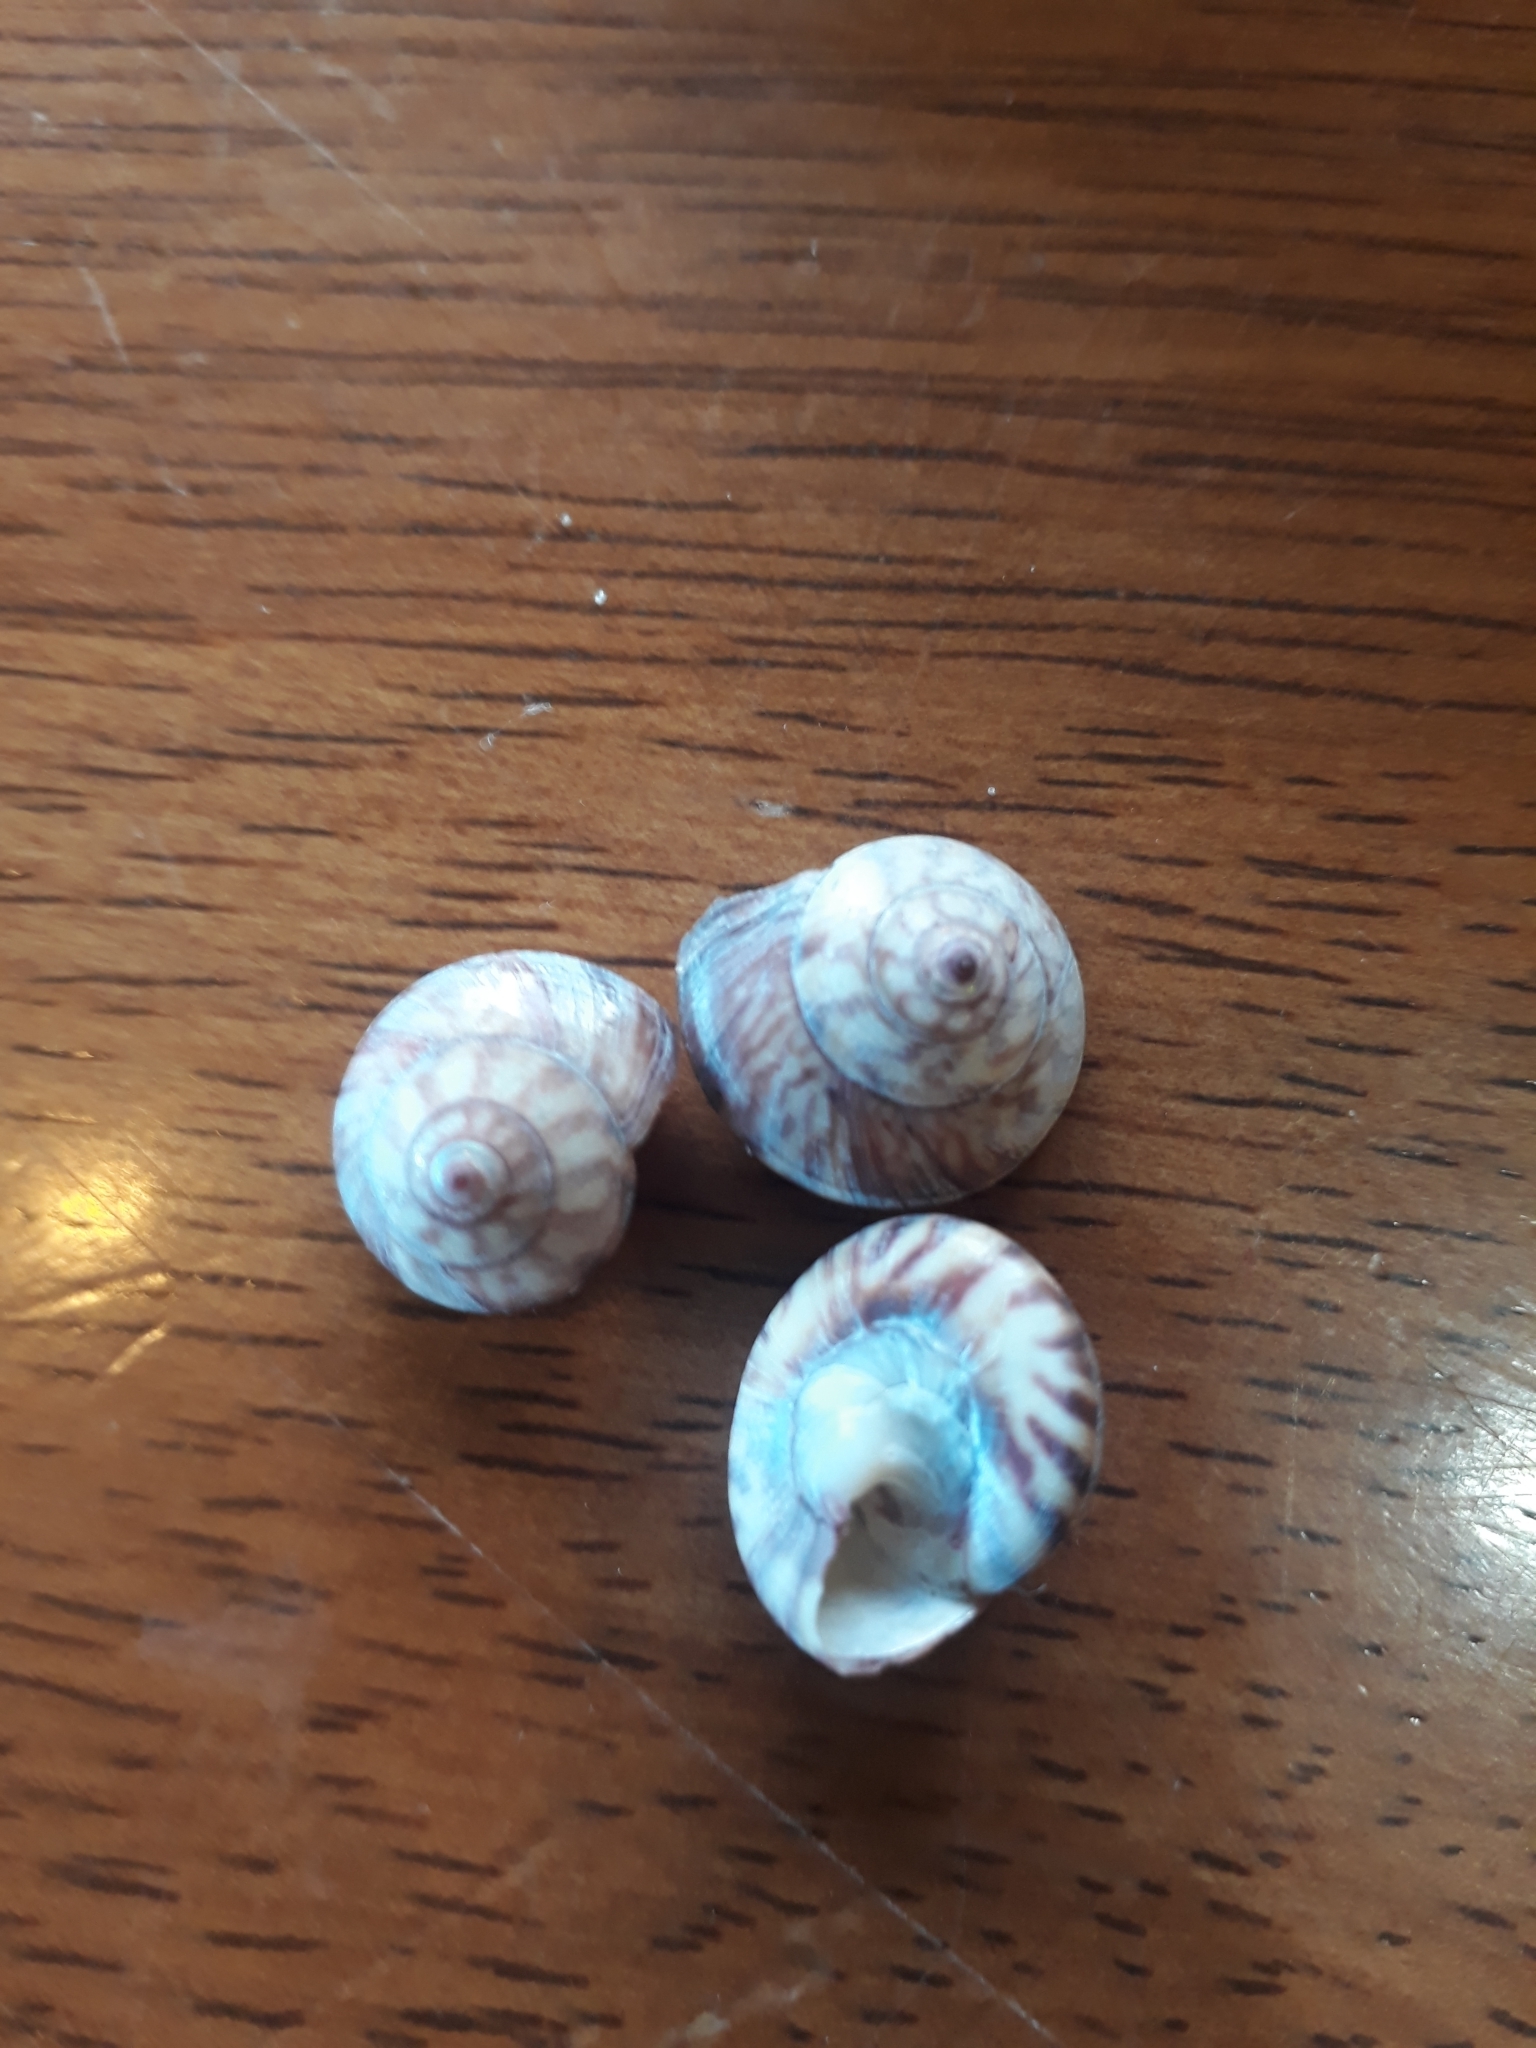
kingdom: Animalia
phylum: Mollusca
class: Gastropoda
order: Trochida
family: Trochidae
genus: Zethalia
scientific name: Zethalia zelandica
